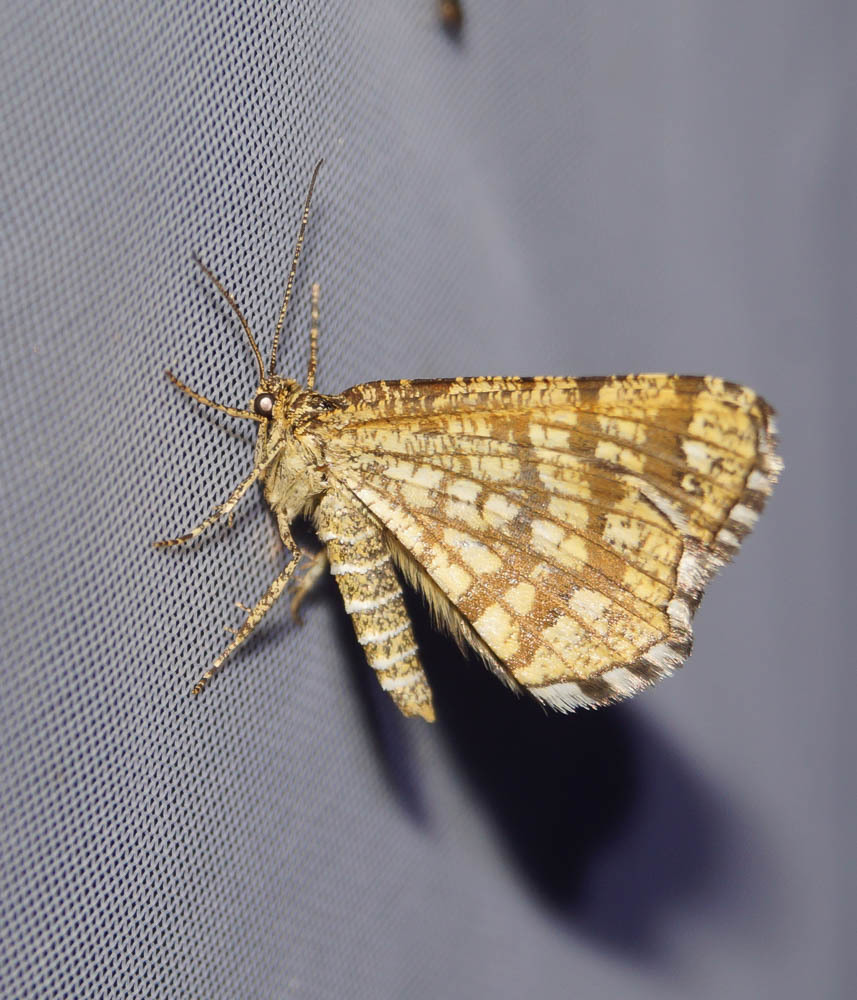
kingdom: Animalia
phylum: Arthropoda
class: Insecta
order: Lepidoptera
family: Geometridae
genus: Chiasmia
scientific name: Chiasmia clathrata
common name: Latticed heath
